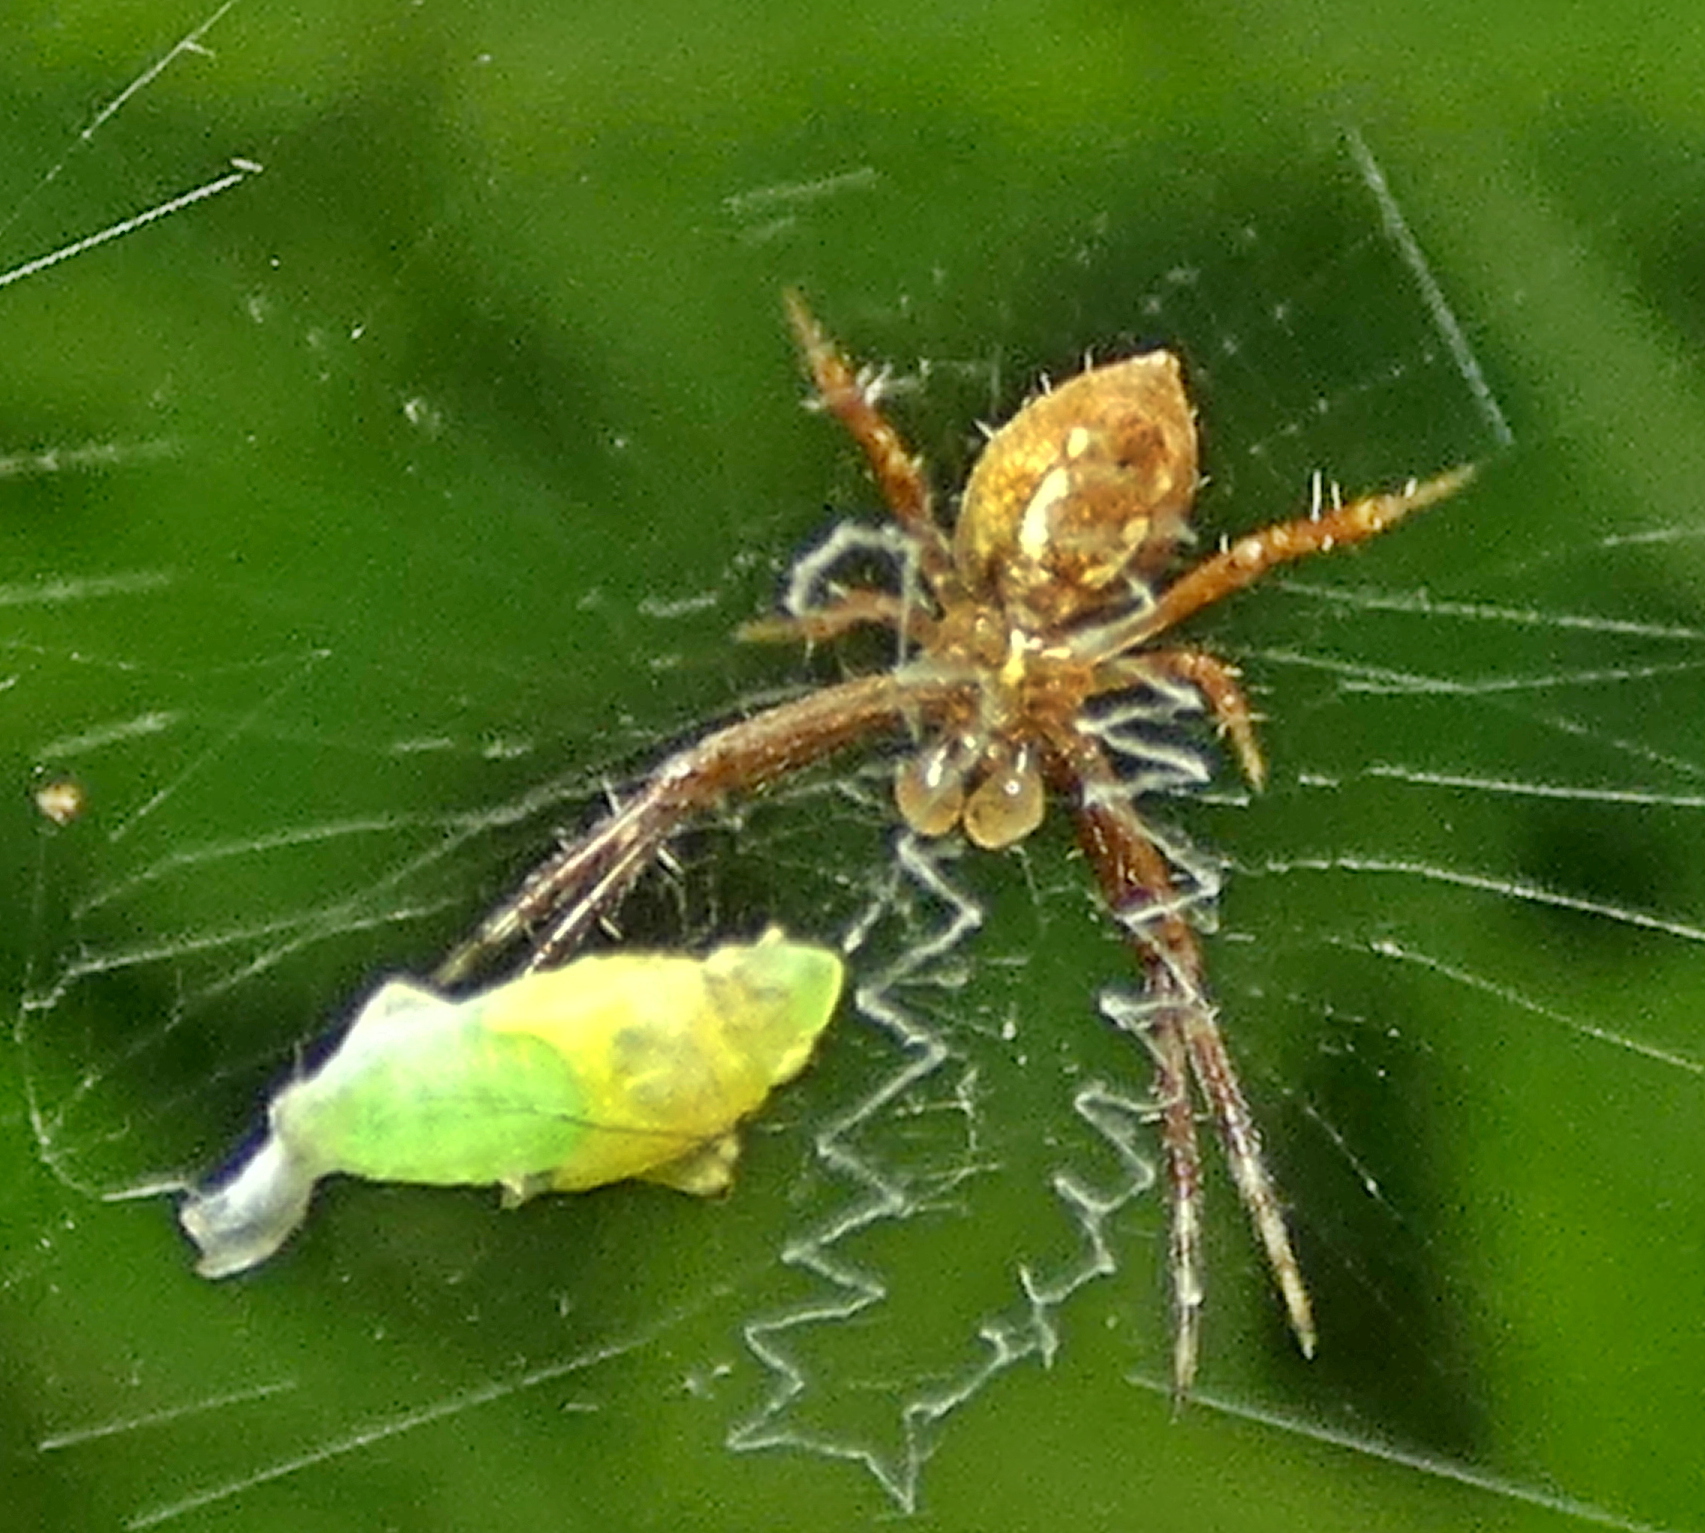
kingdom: Animalia
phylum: Arthropoda
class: Arachnida
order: Araneae
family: Araneidae
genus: Argiope
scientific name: Argiope argentata
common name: Orb weavers
